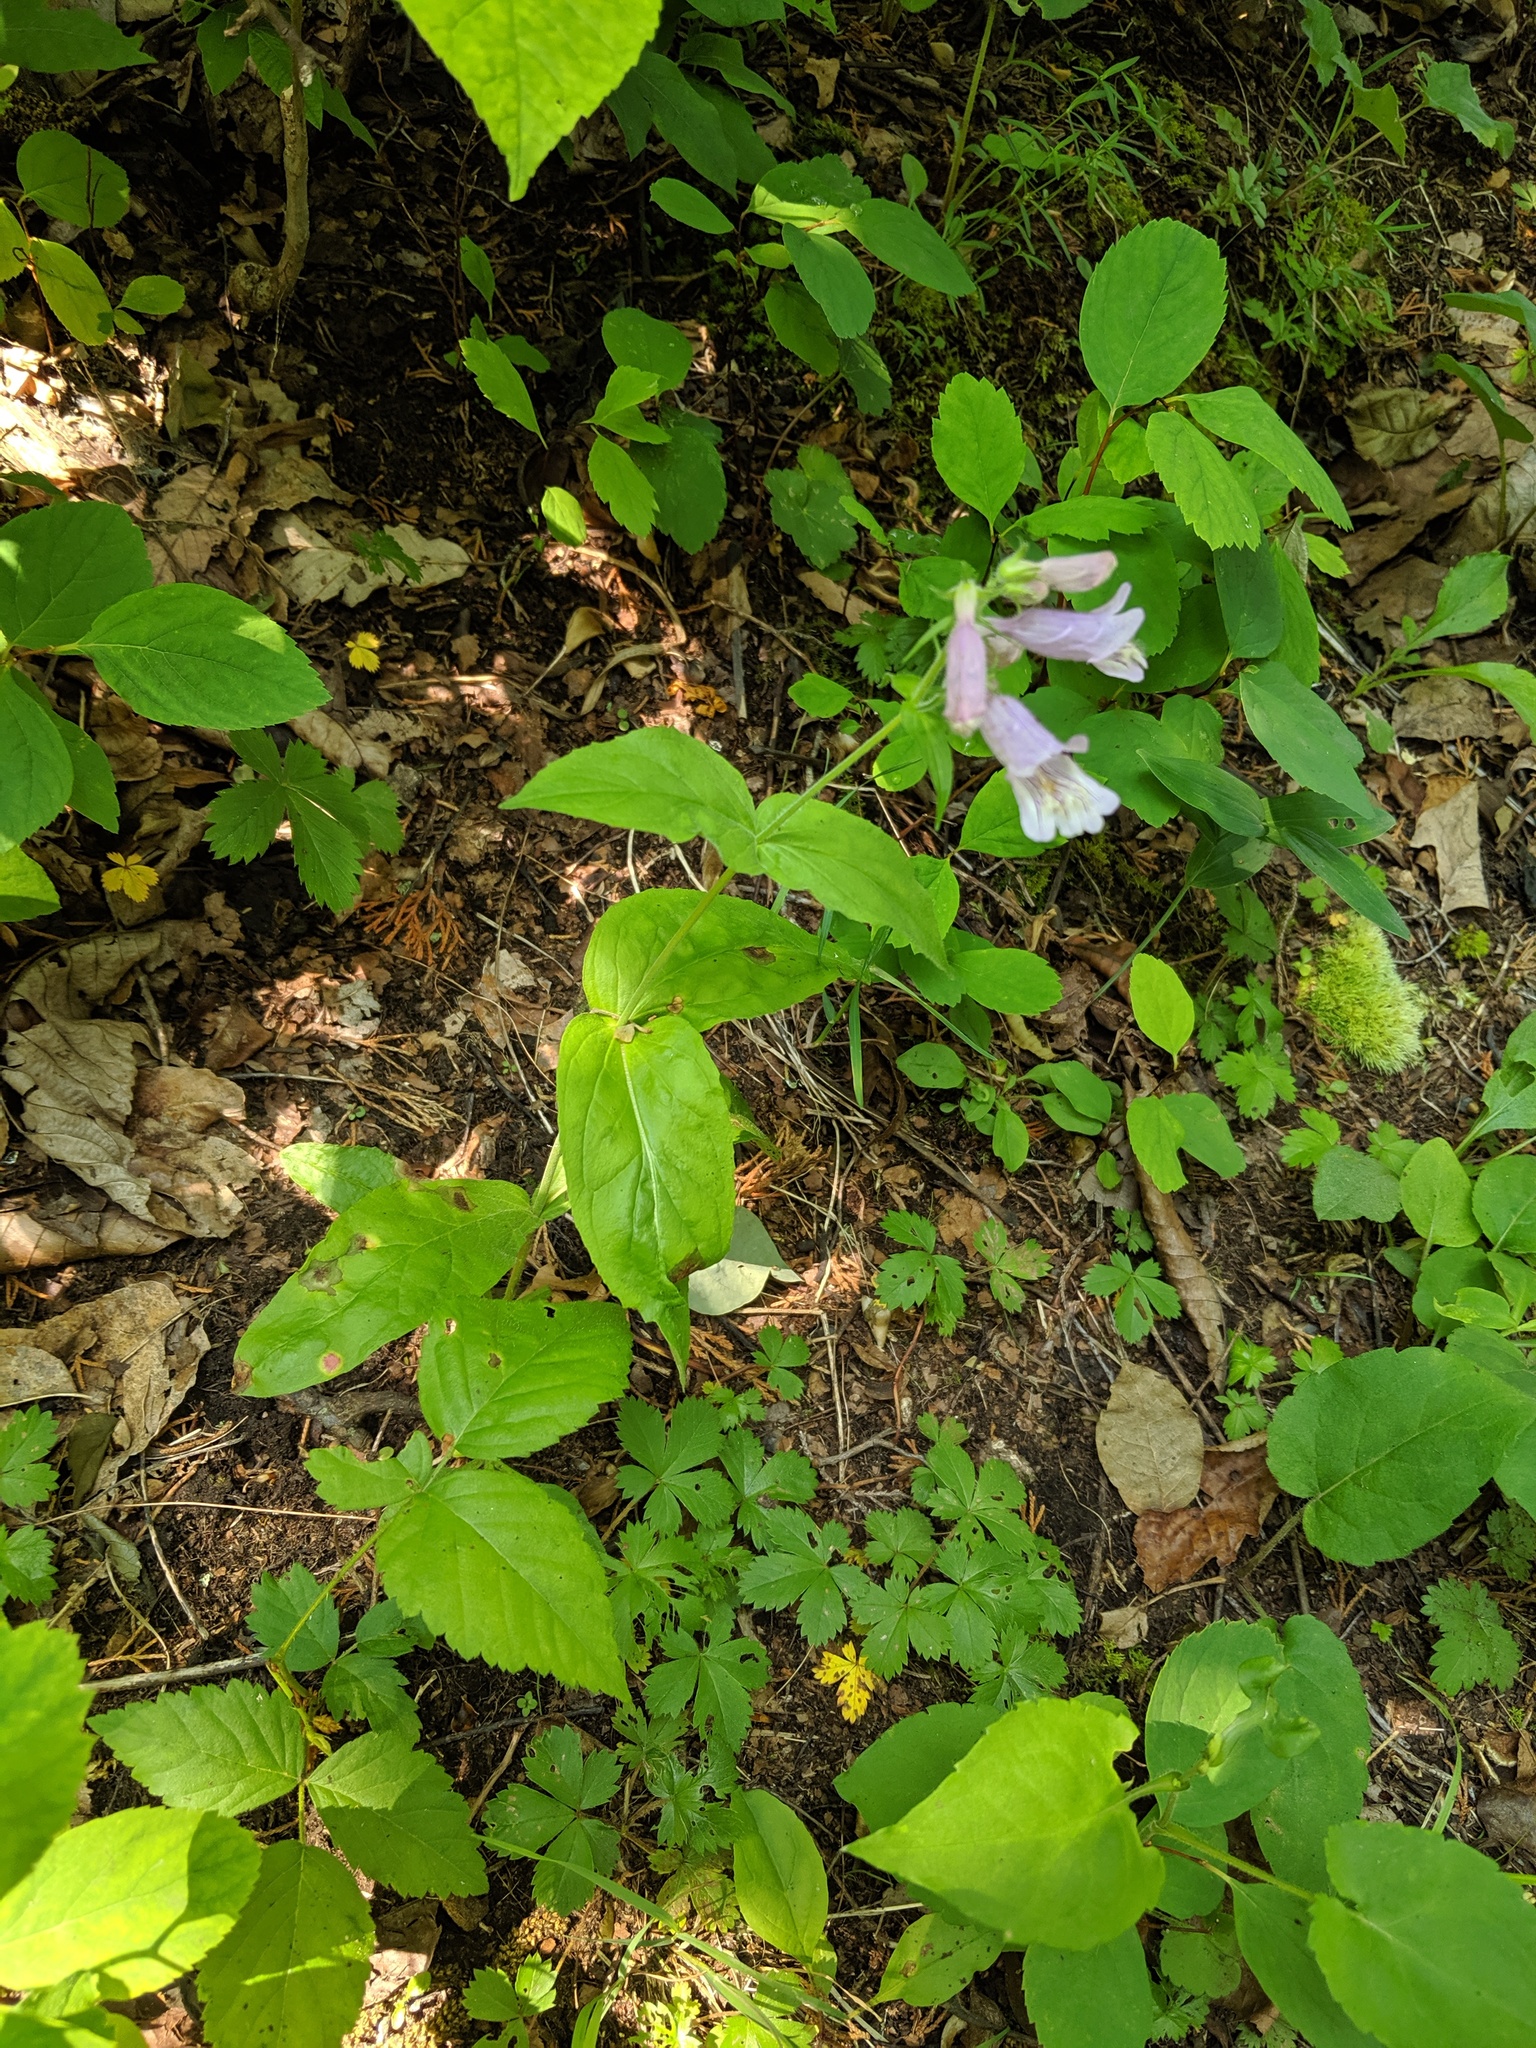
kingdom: Plantae
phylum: Tracheophyta
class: Magnoliopsida
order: Lamiales
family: Plantaginaceae
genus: Penstemon
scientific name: Penstemon canescens
